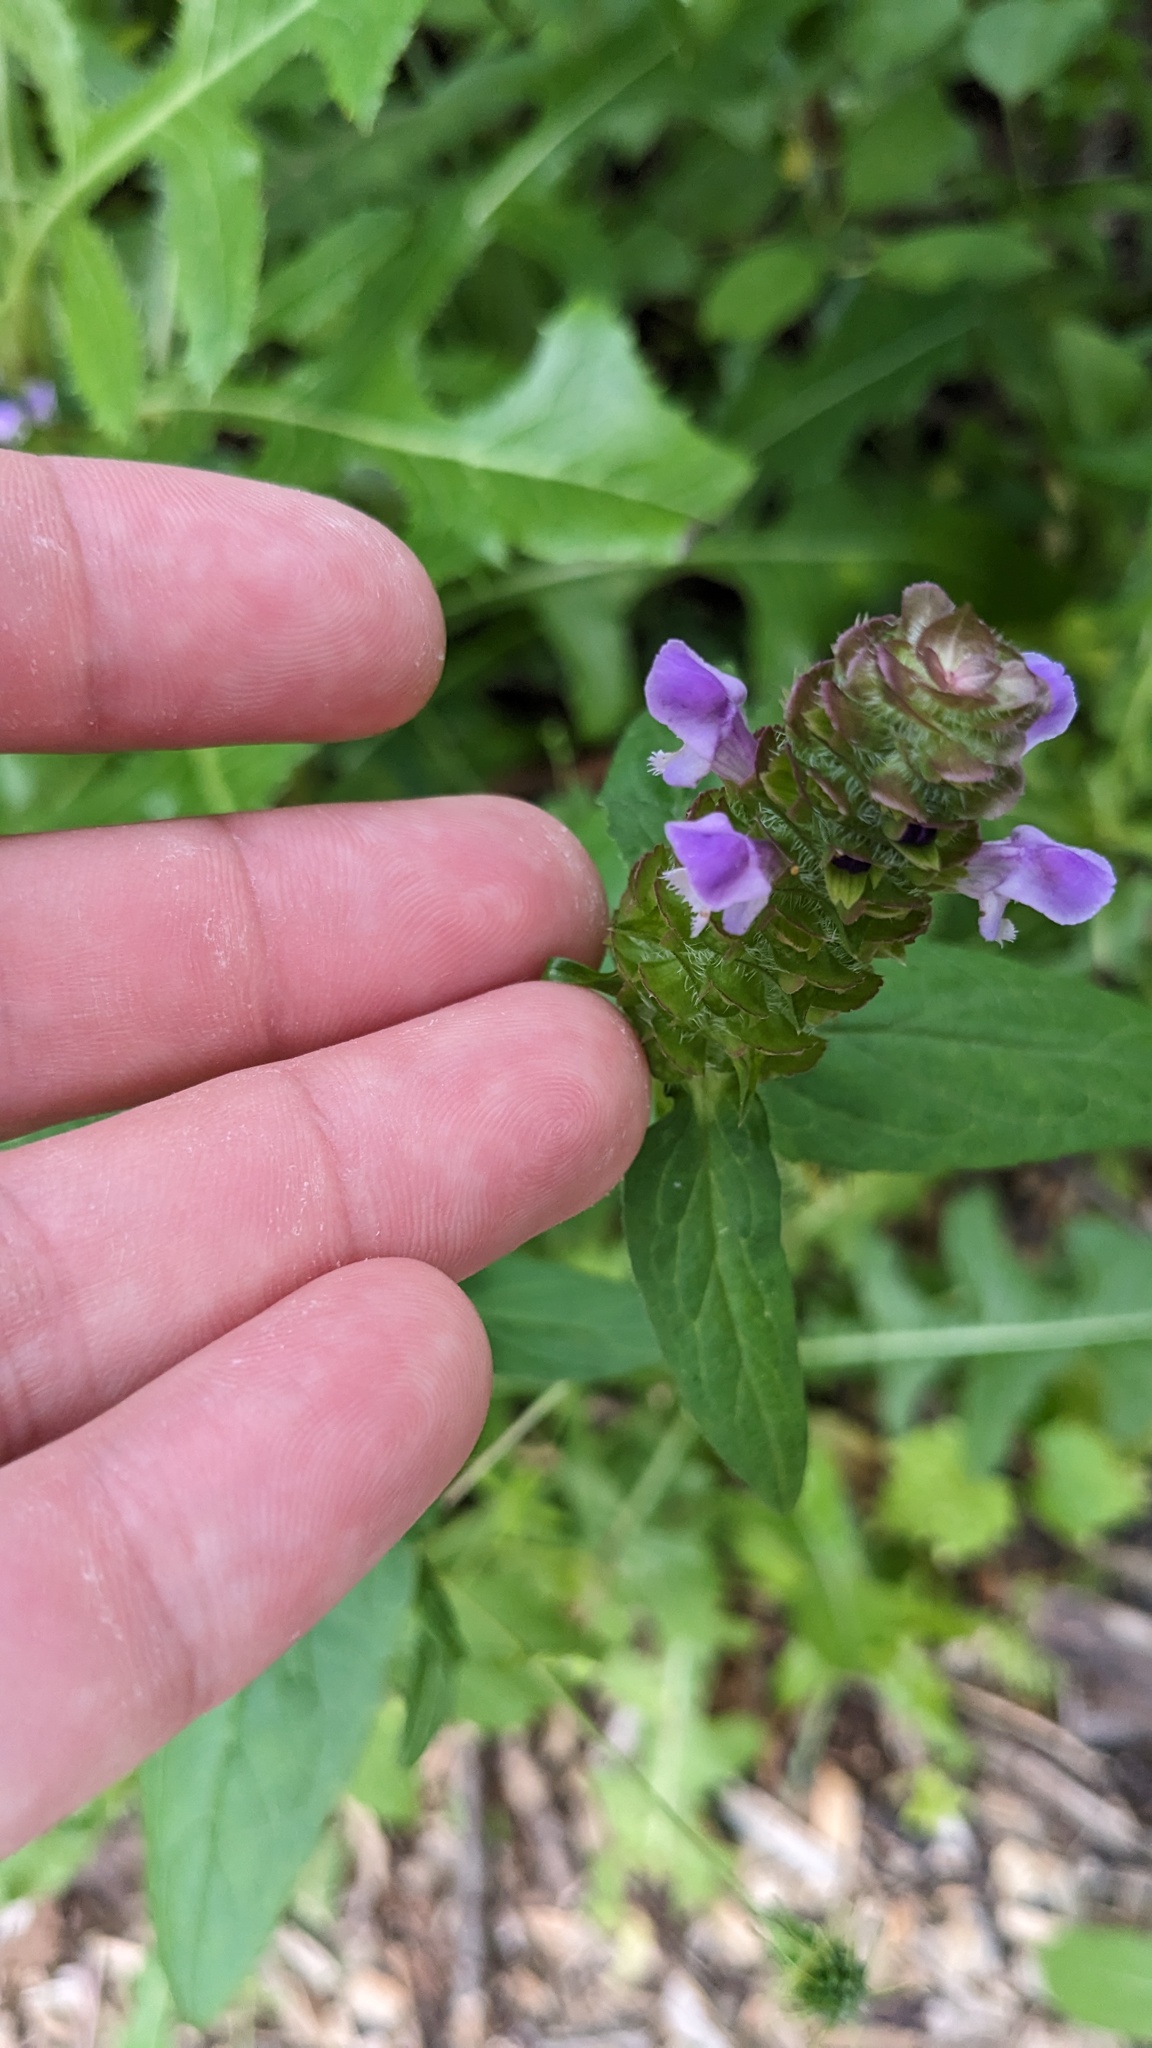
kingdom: Plantae
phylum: Tracheophyta
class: Magnoliopsida
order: Lamiales
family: Lamiaceae
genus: Prunella
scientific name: Prunella vulgaris
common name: Heal-all
